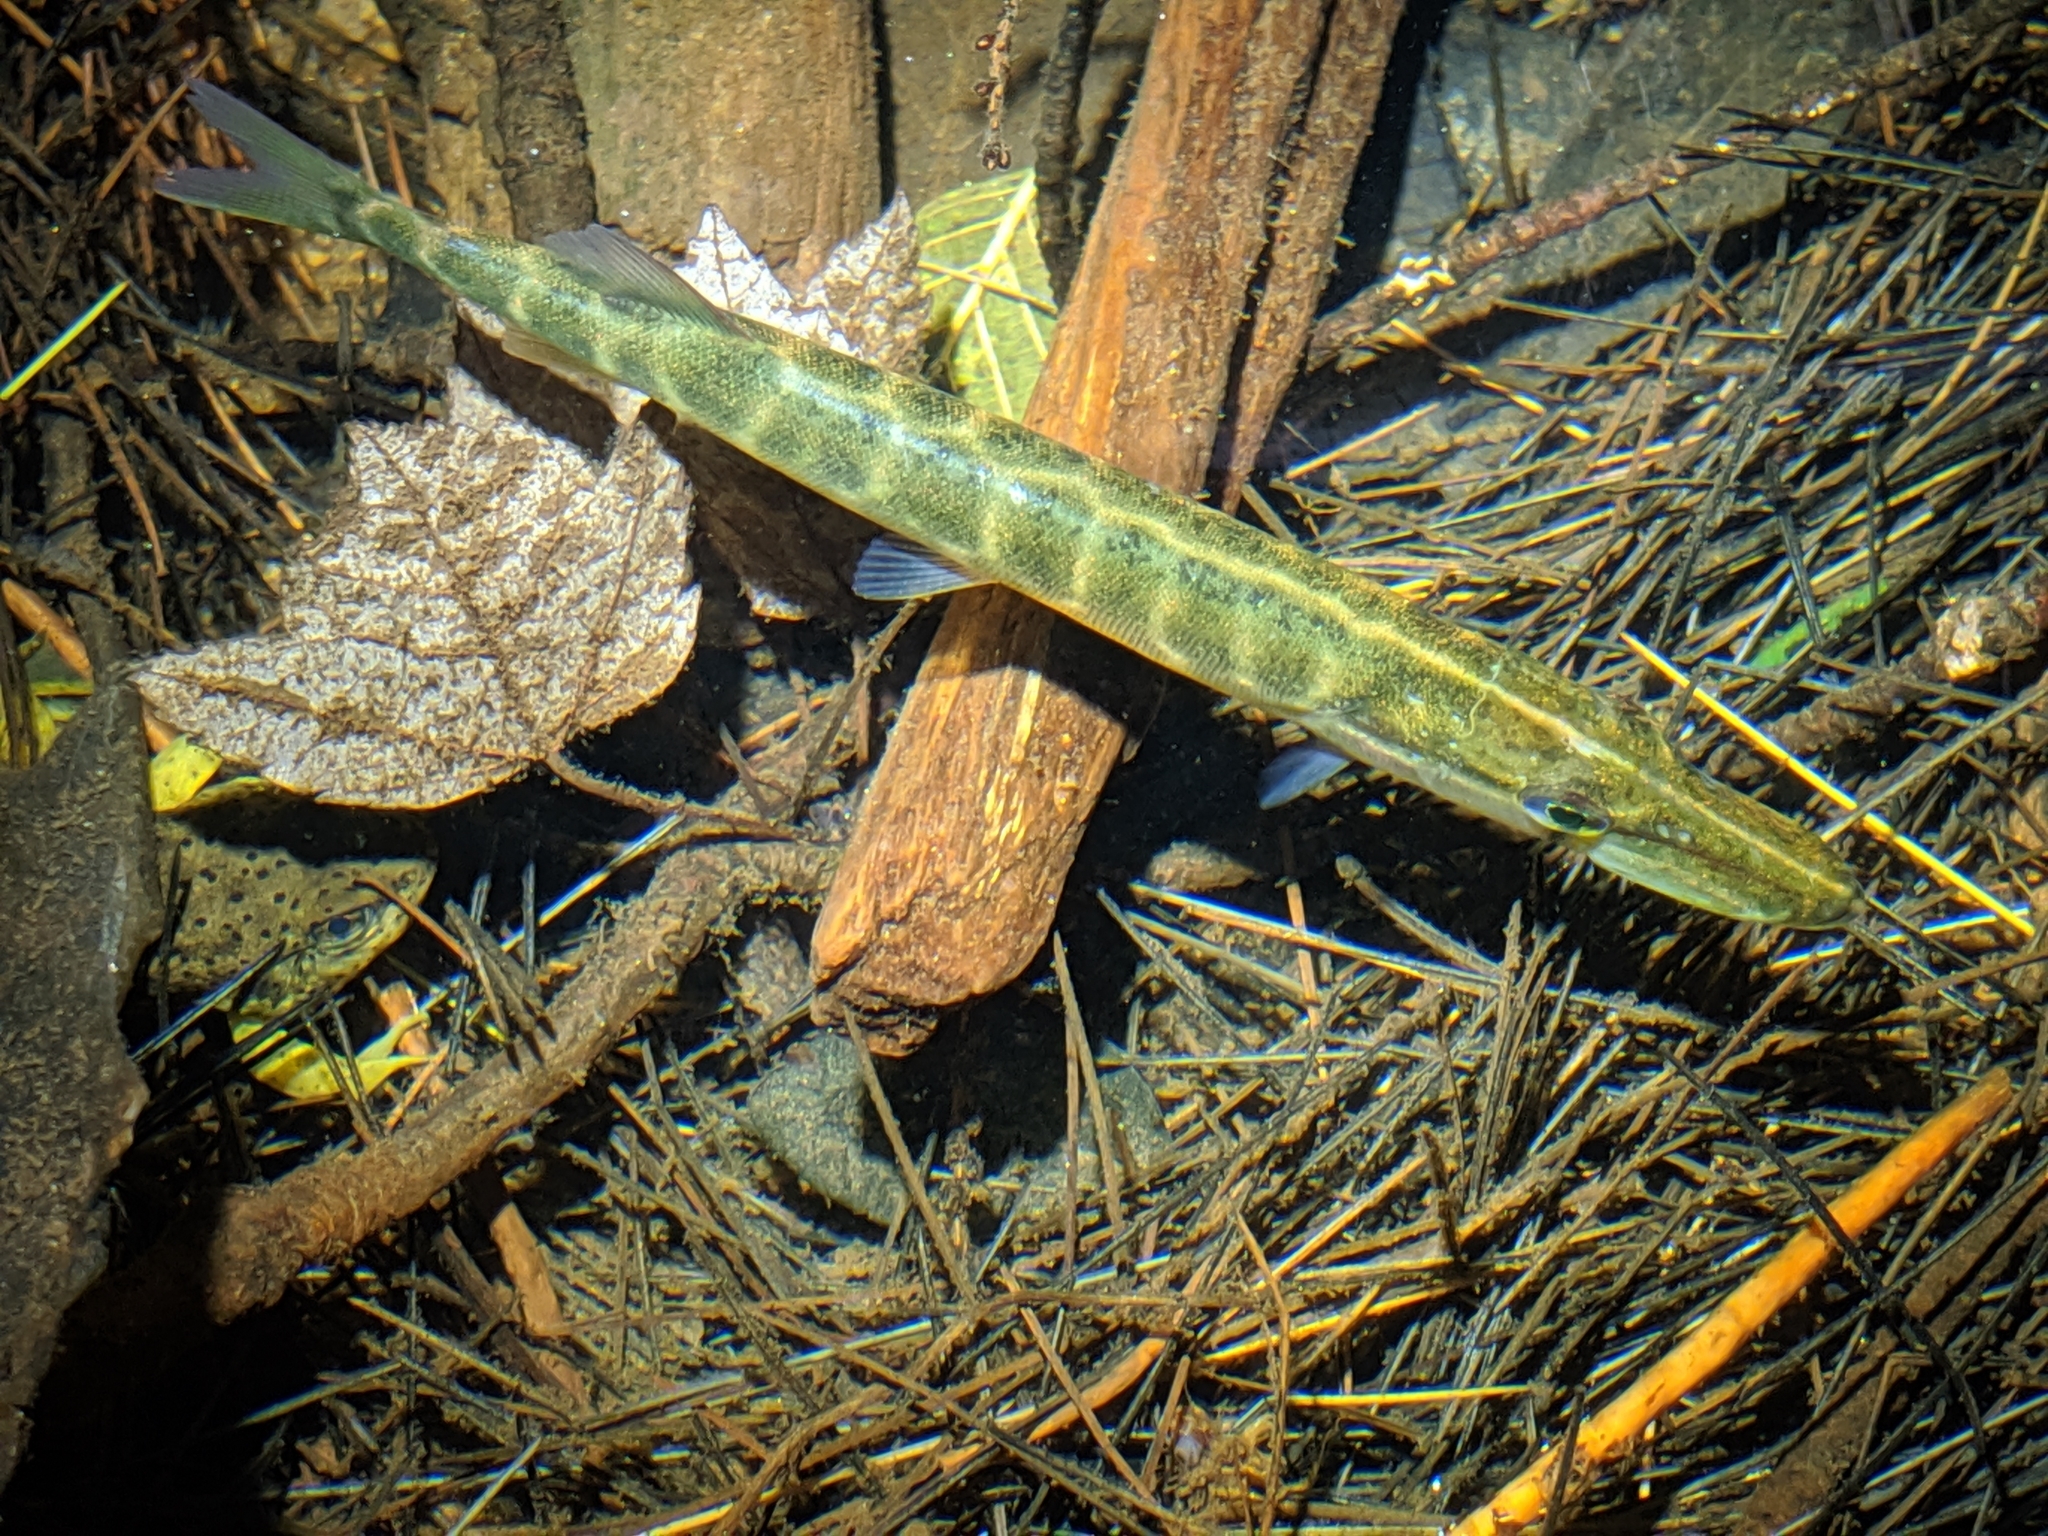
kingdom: Animalia
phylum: Chordata
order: Esociformes
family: Esocidae
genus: Esox
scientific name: Esox niger
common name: Chain pickerel
